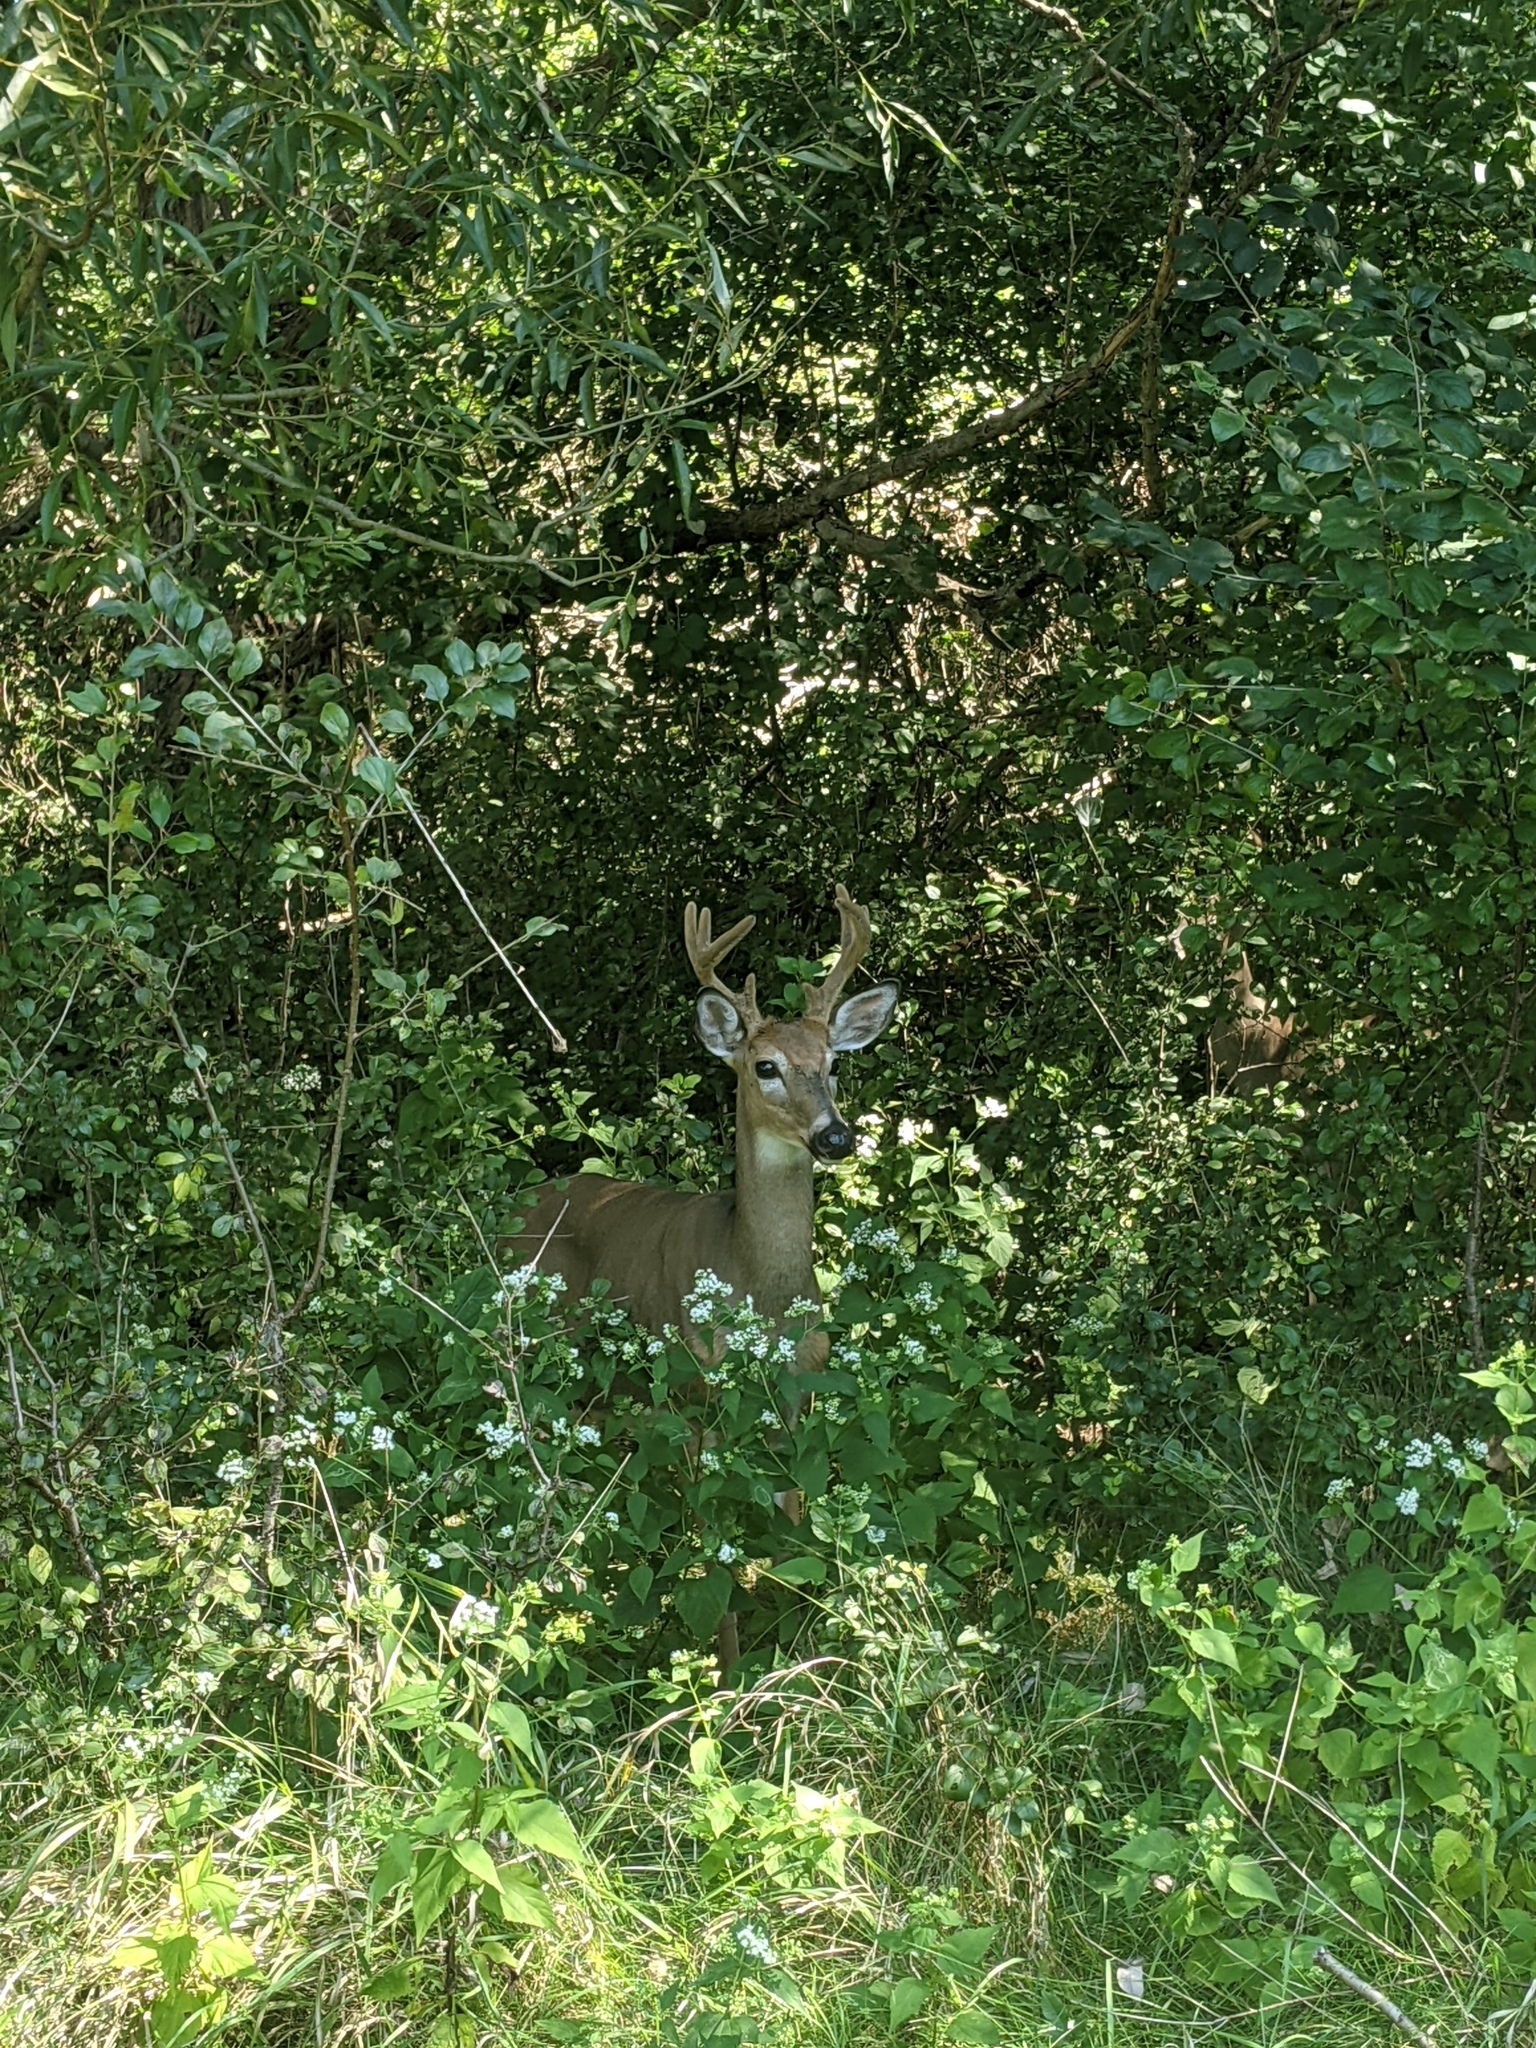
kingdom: Animalia
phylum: Chordata
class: Mammalia
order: Artiodactyla
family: Cervidae
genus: Odocoileus
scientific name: Odocoileus virginianus
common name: White-tailed deer
